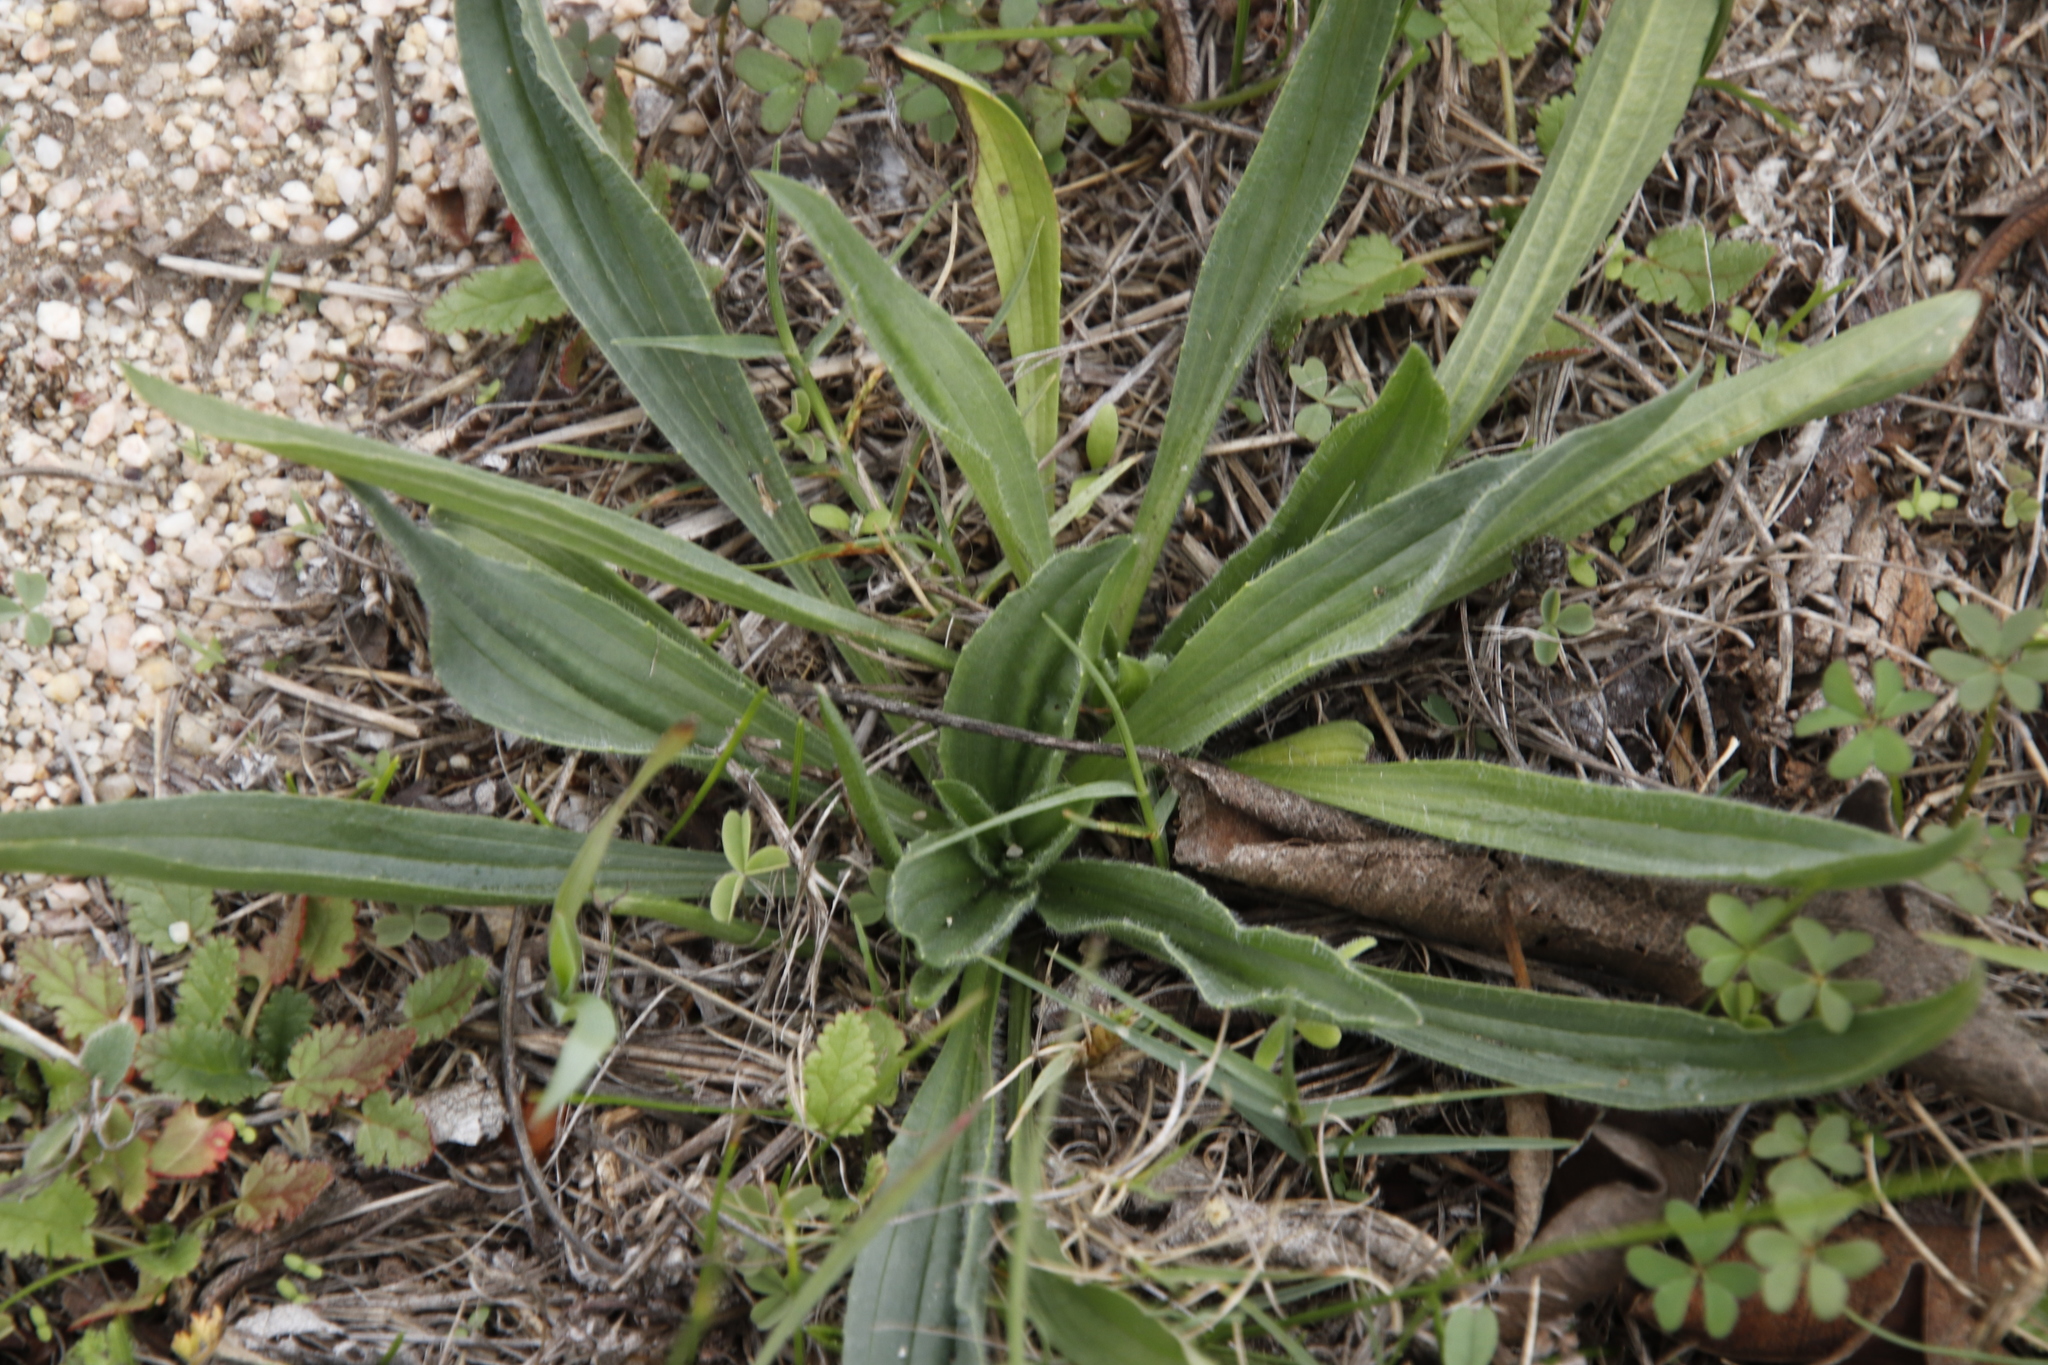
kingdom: Plantae
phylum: Tracheophyta
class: Magnoliopsida
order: Lamiales
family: Plantaginaceae
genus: Plantago
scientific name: Plantago lanceolata
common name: Ribwort plantain
